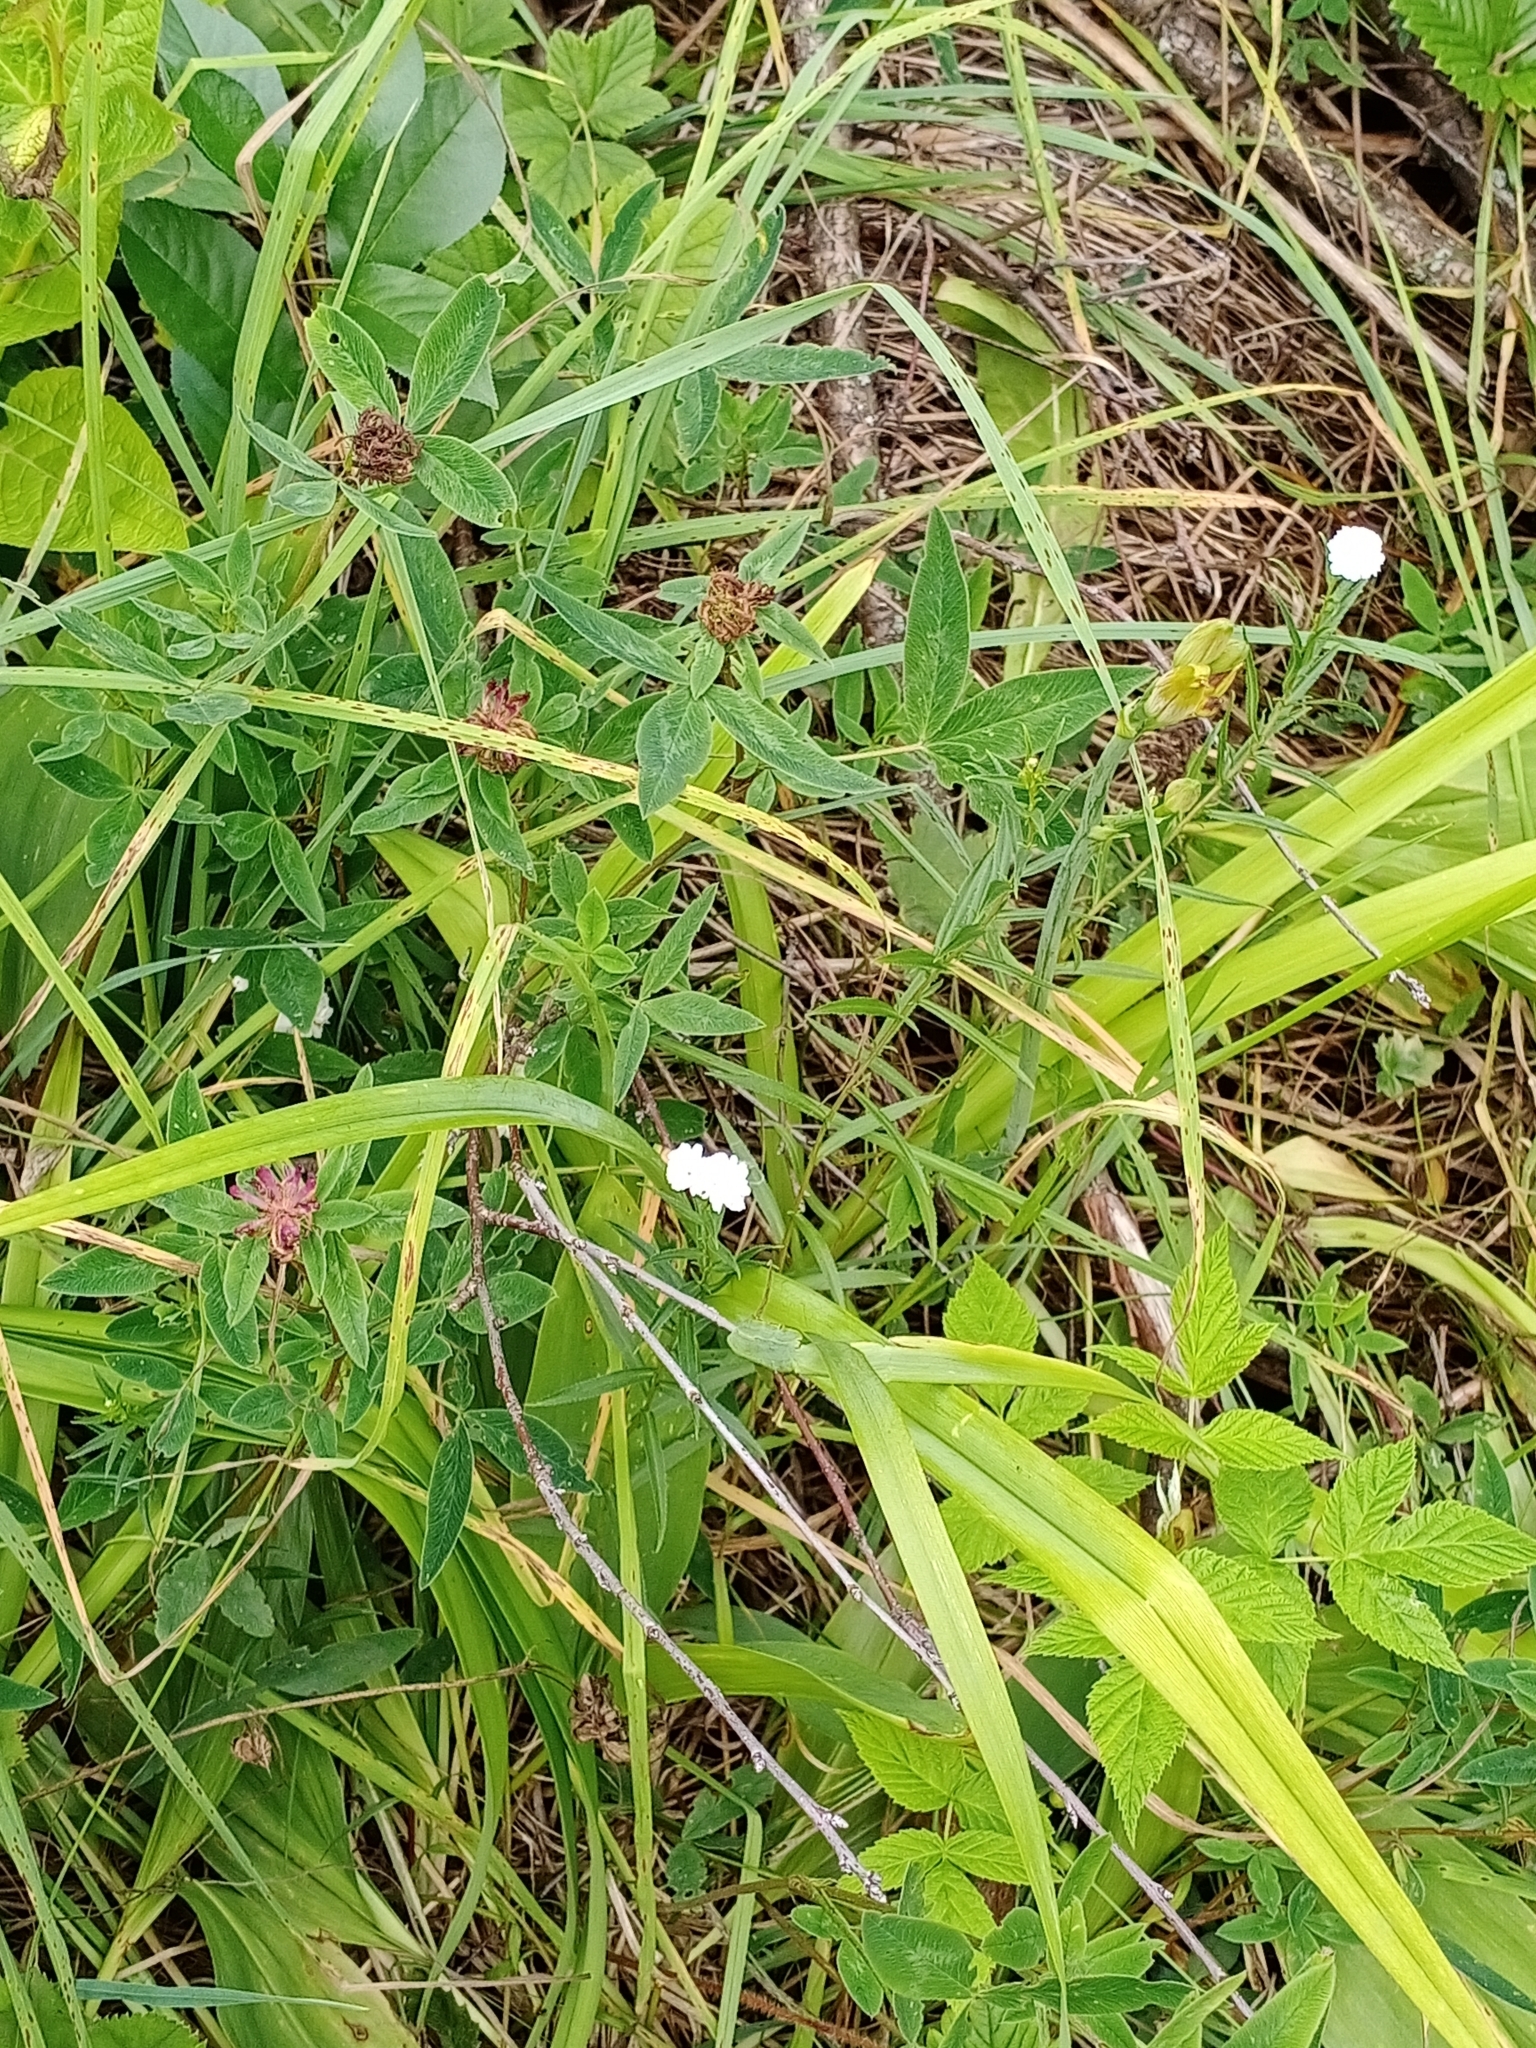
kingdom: Plantae
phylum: Tracheophyta
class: Magnoliopsida
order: Asterales
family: Asteraceae
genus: Achillea
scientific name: Achillea ptarmica
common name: Sneezeweed
